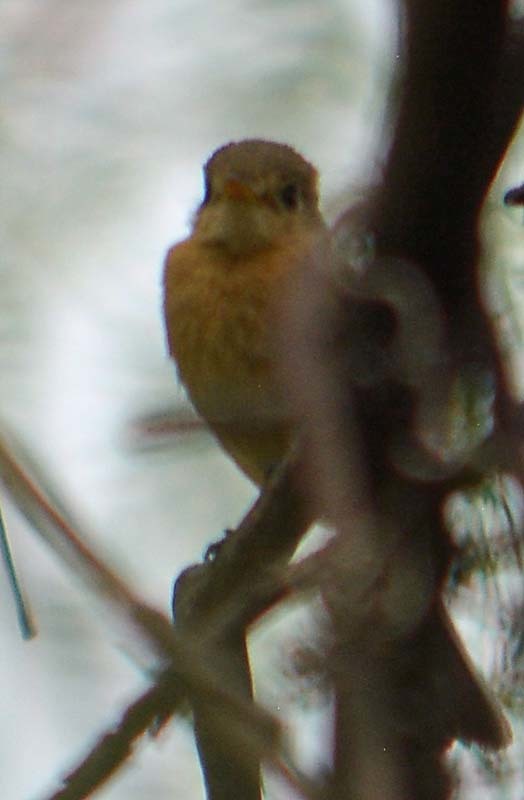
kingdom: Animalia
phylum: Chordata
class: Aves
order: Passeriformes
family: Tyrannidae
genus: Empidonax
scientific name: Empidonax fulvifrons
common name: Buff-breasted flycatcher
